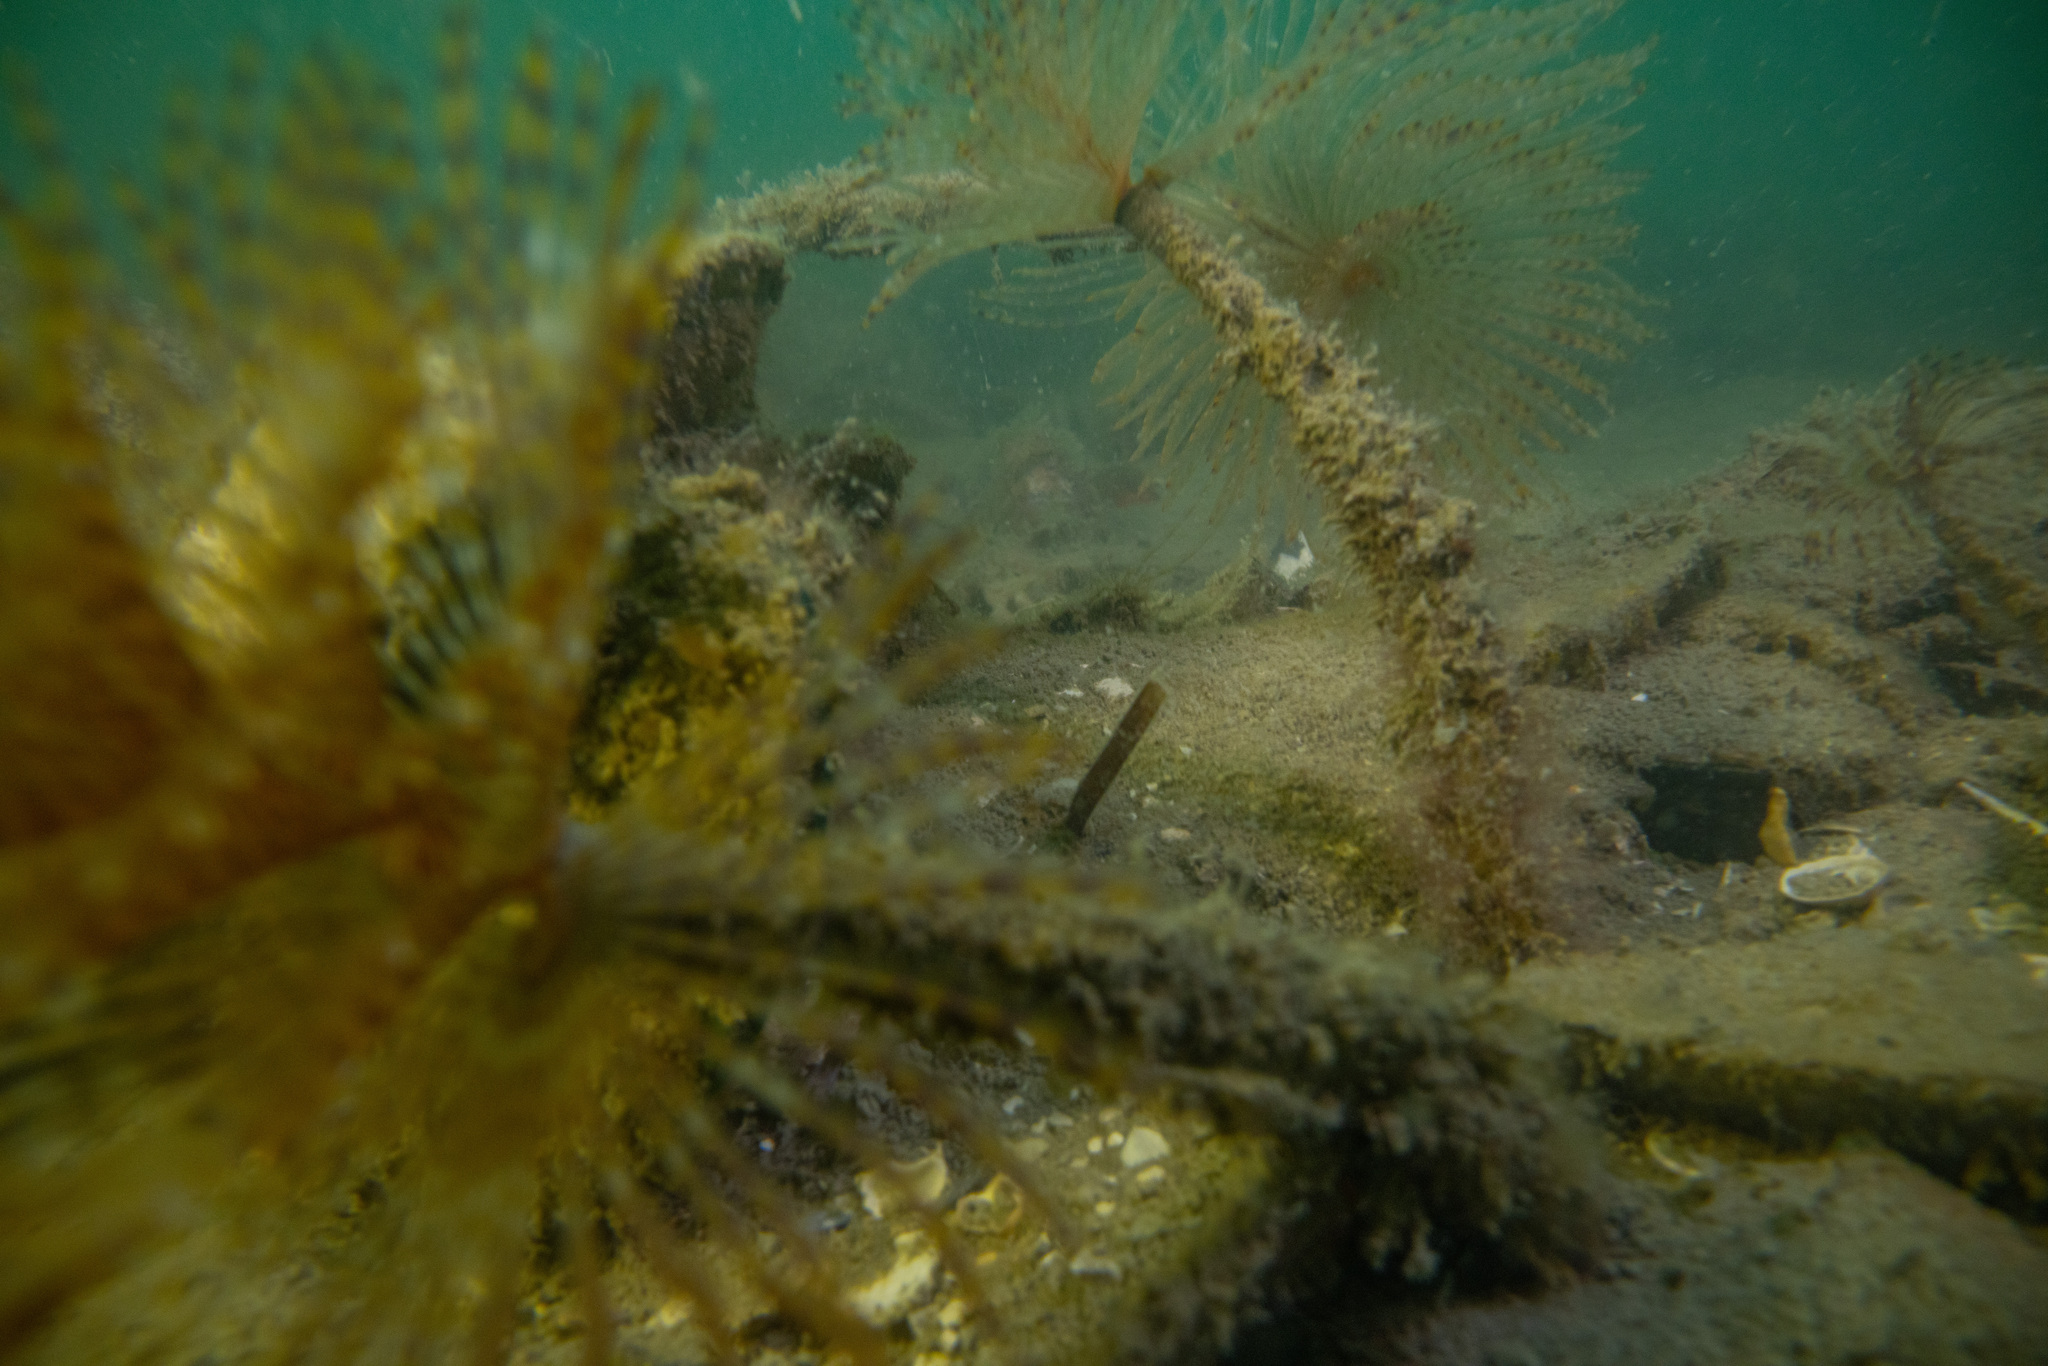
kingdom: Animalia
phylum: Annelida
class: Polychaeta
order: Sabellida
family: Sabellidae
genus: Sabella
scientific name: Sabella spallanzanii
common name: Feather duster worm
